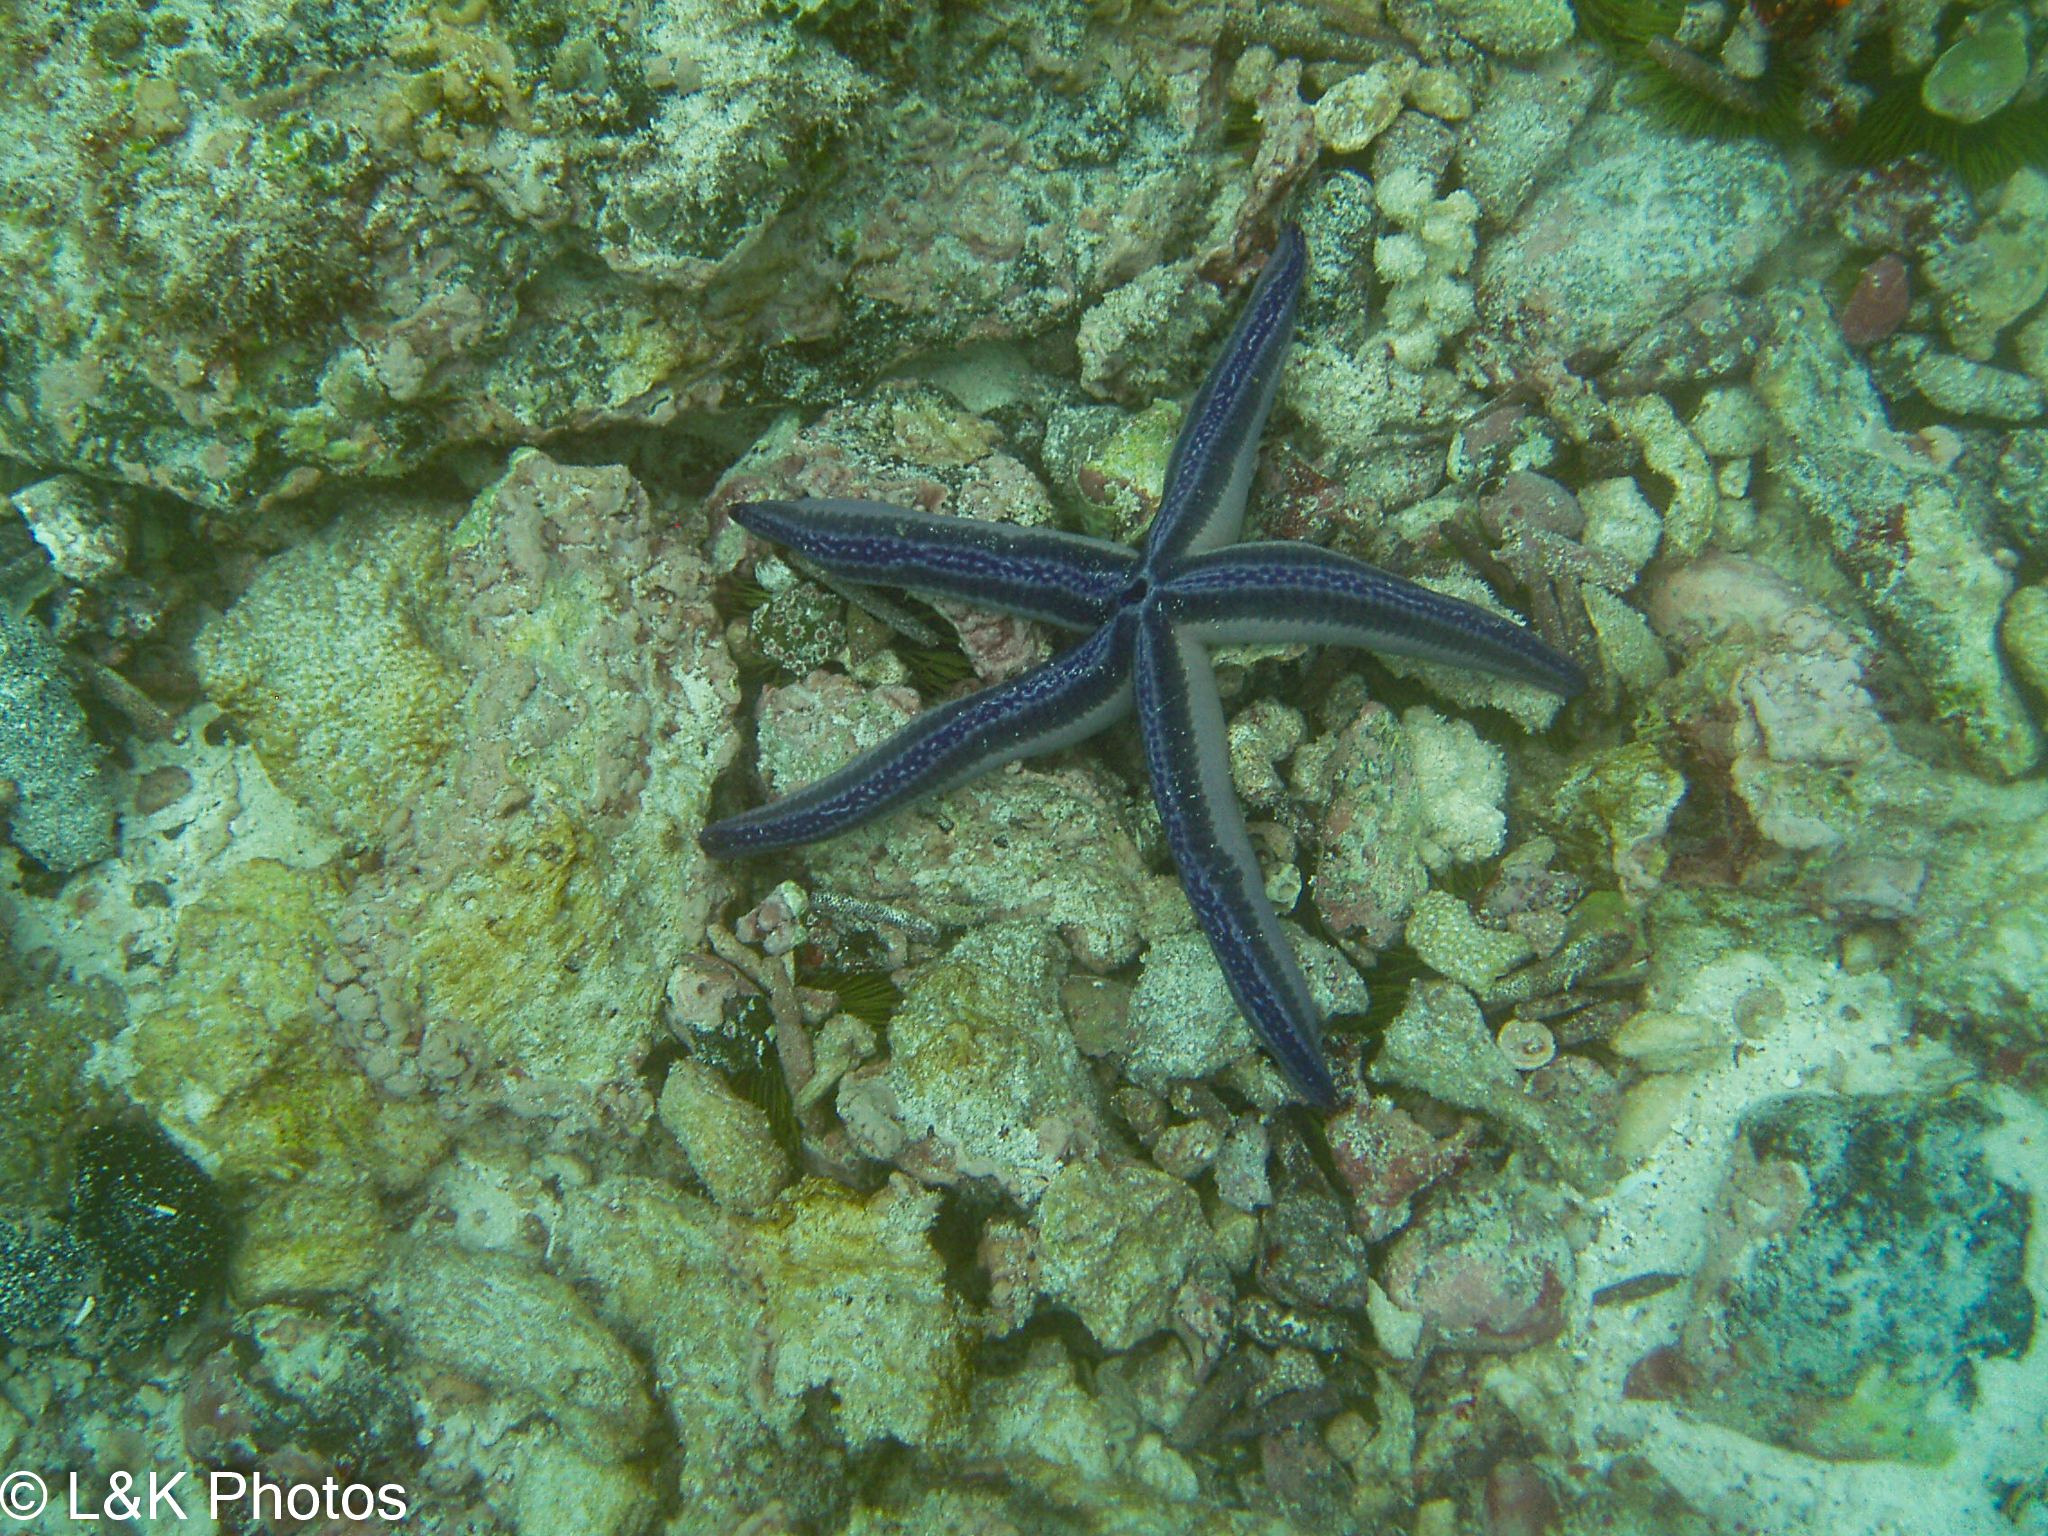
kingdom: Animalia
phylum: Echinodermata
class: Asteroidea
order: Valvatida
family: Ophidiasteridae
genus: Phataria
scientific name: Phataria unifascialis
